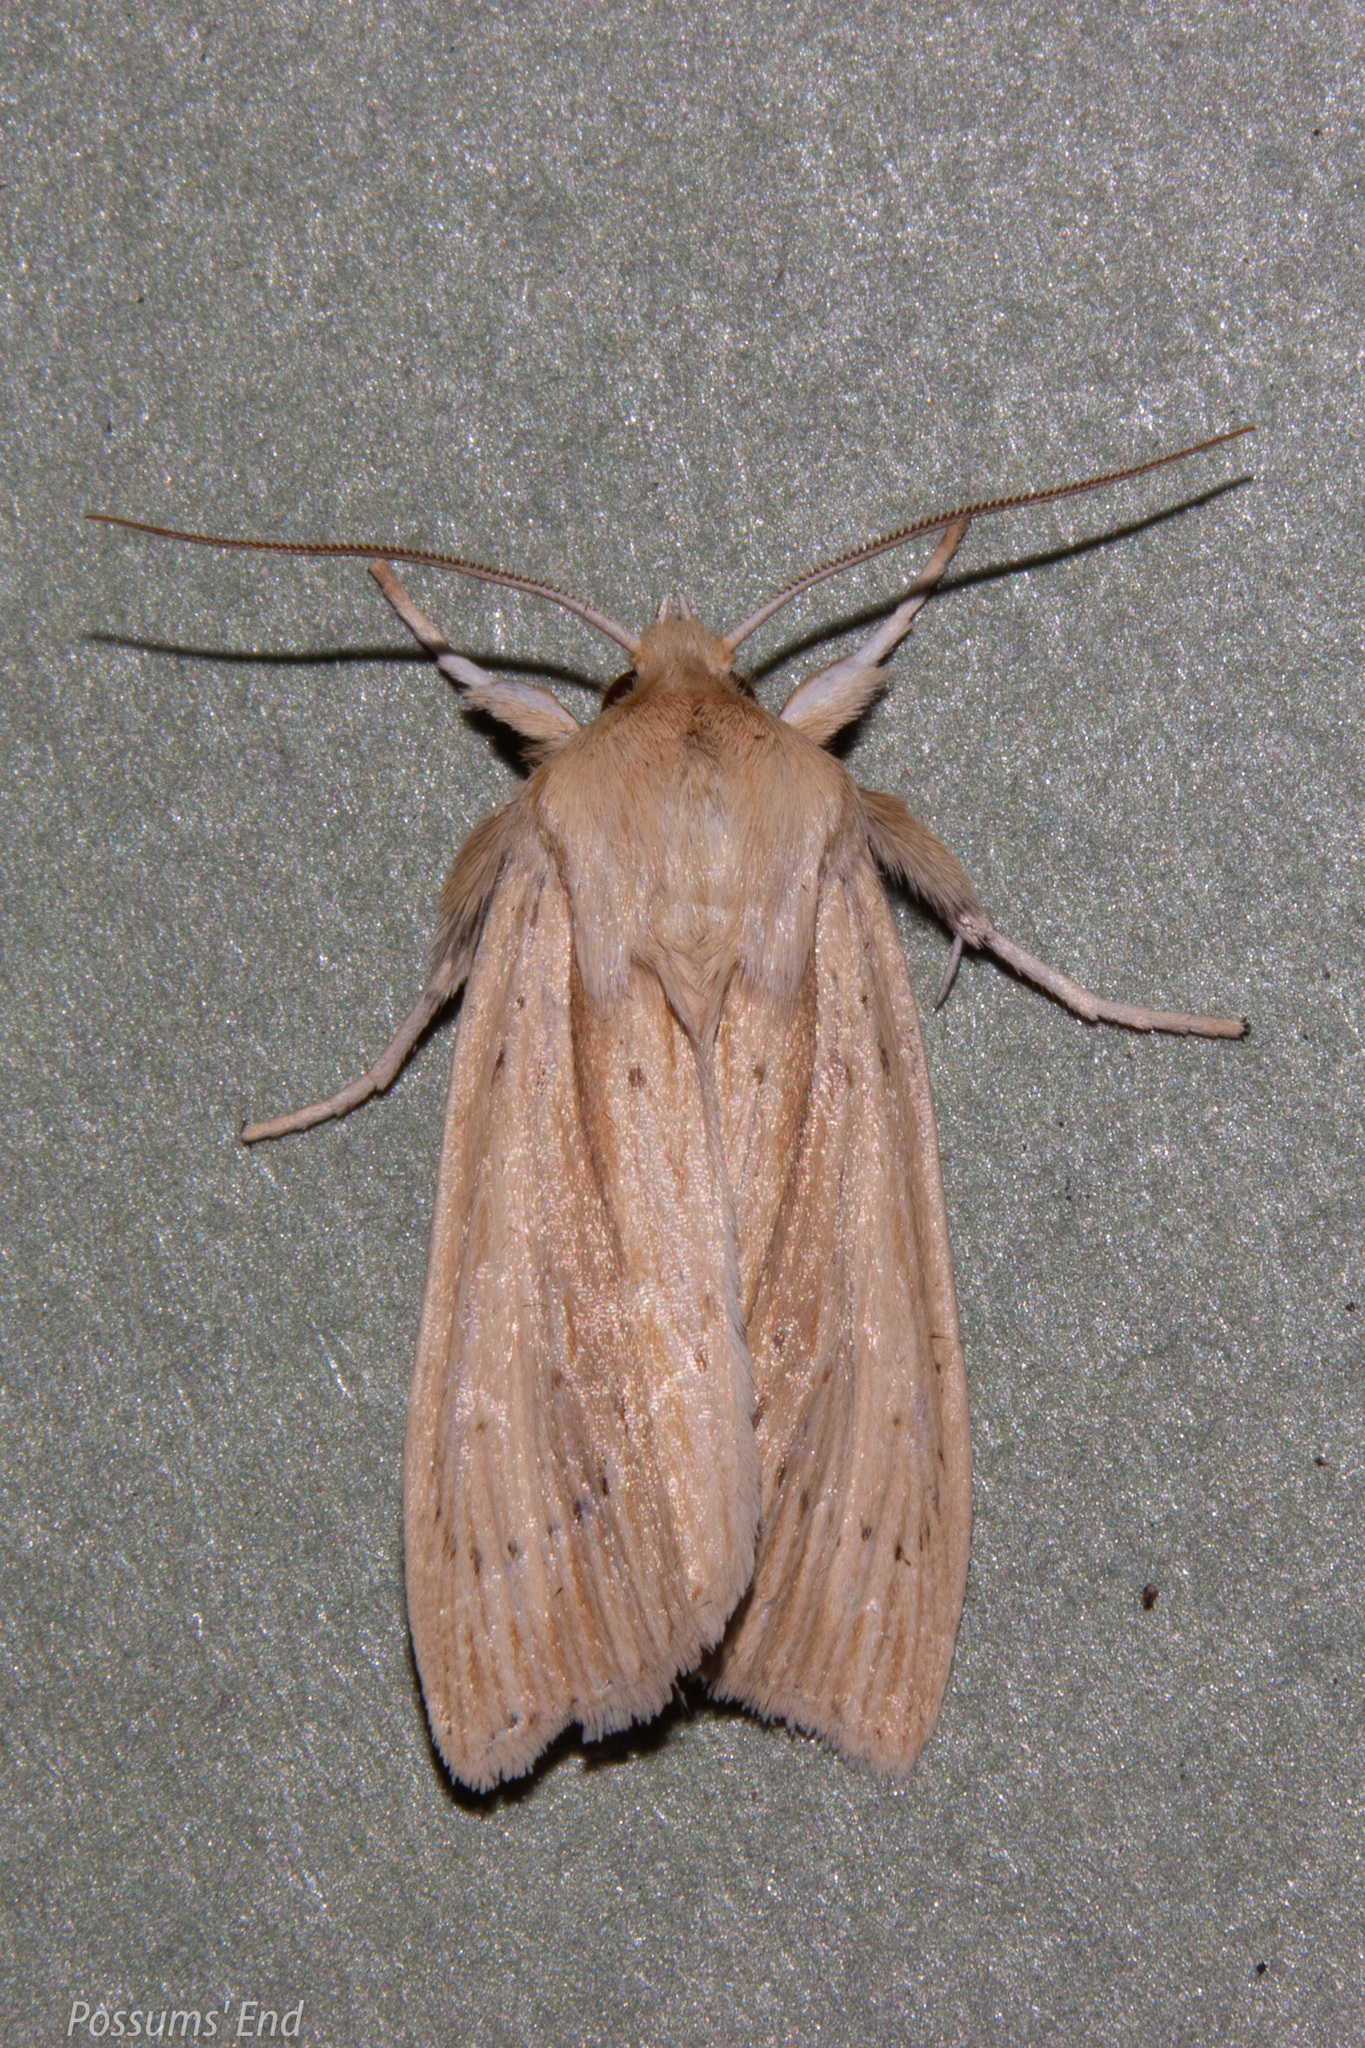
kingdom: Animalia
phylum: Arthropoda
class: Insecta
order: Lepidoptera
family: Noctuidae
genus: Ichneutica
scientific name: Ichneutica semivittata
